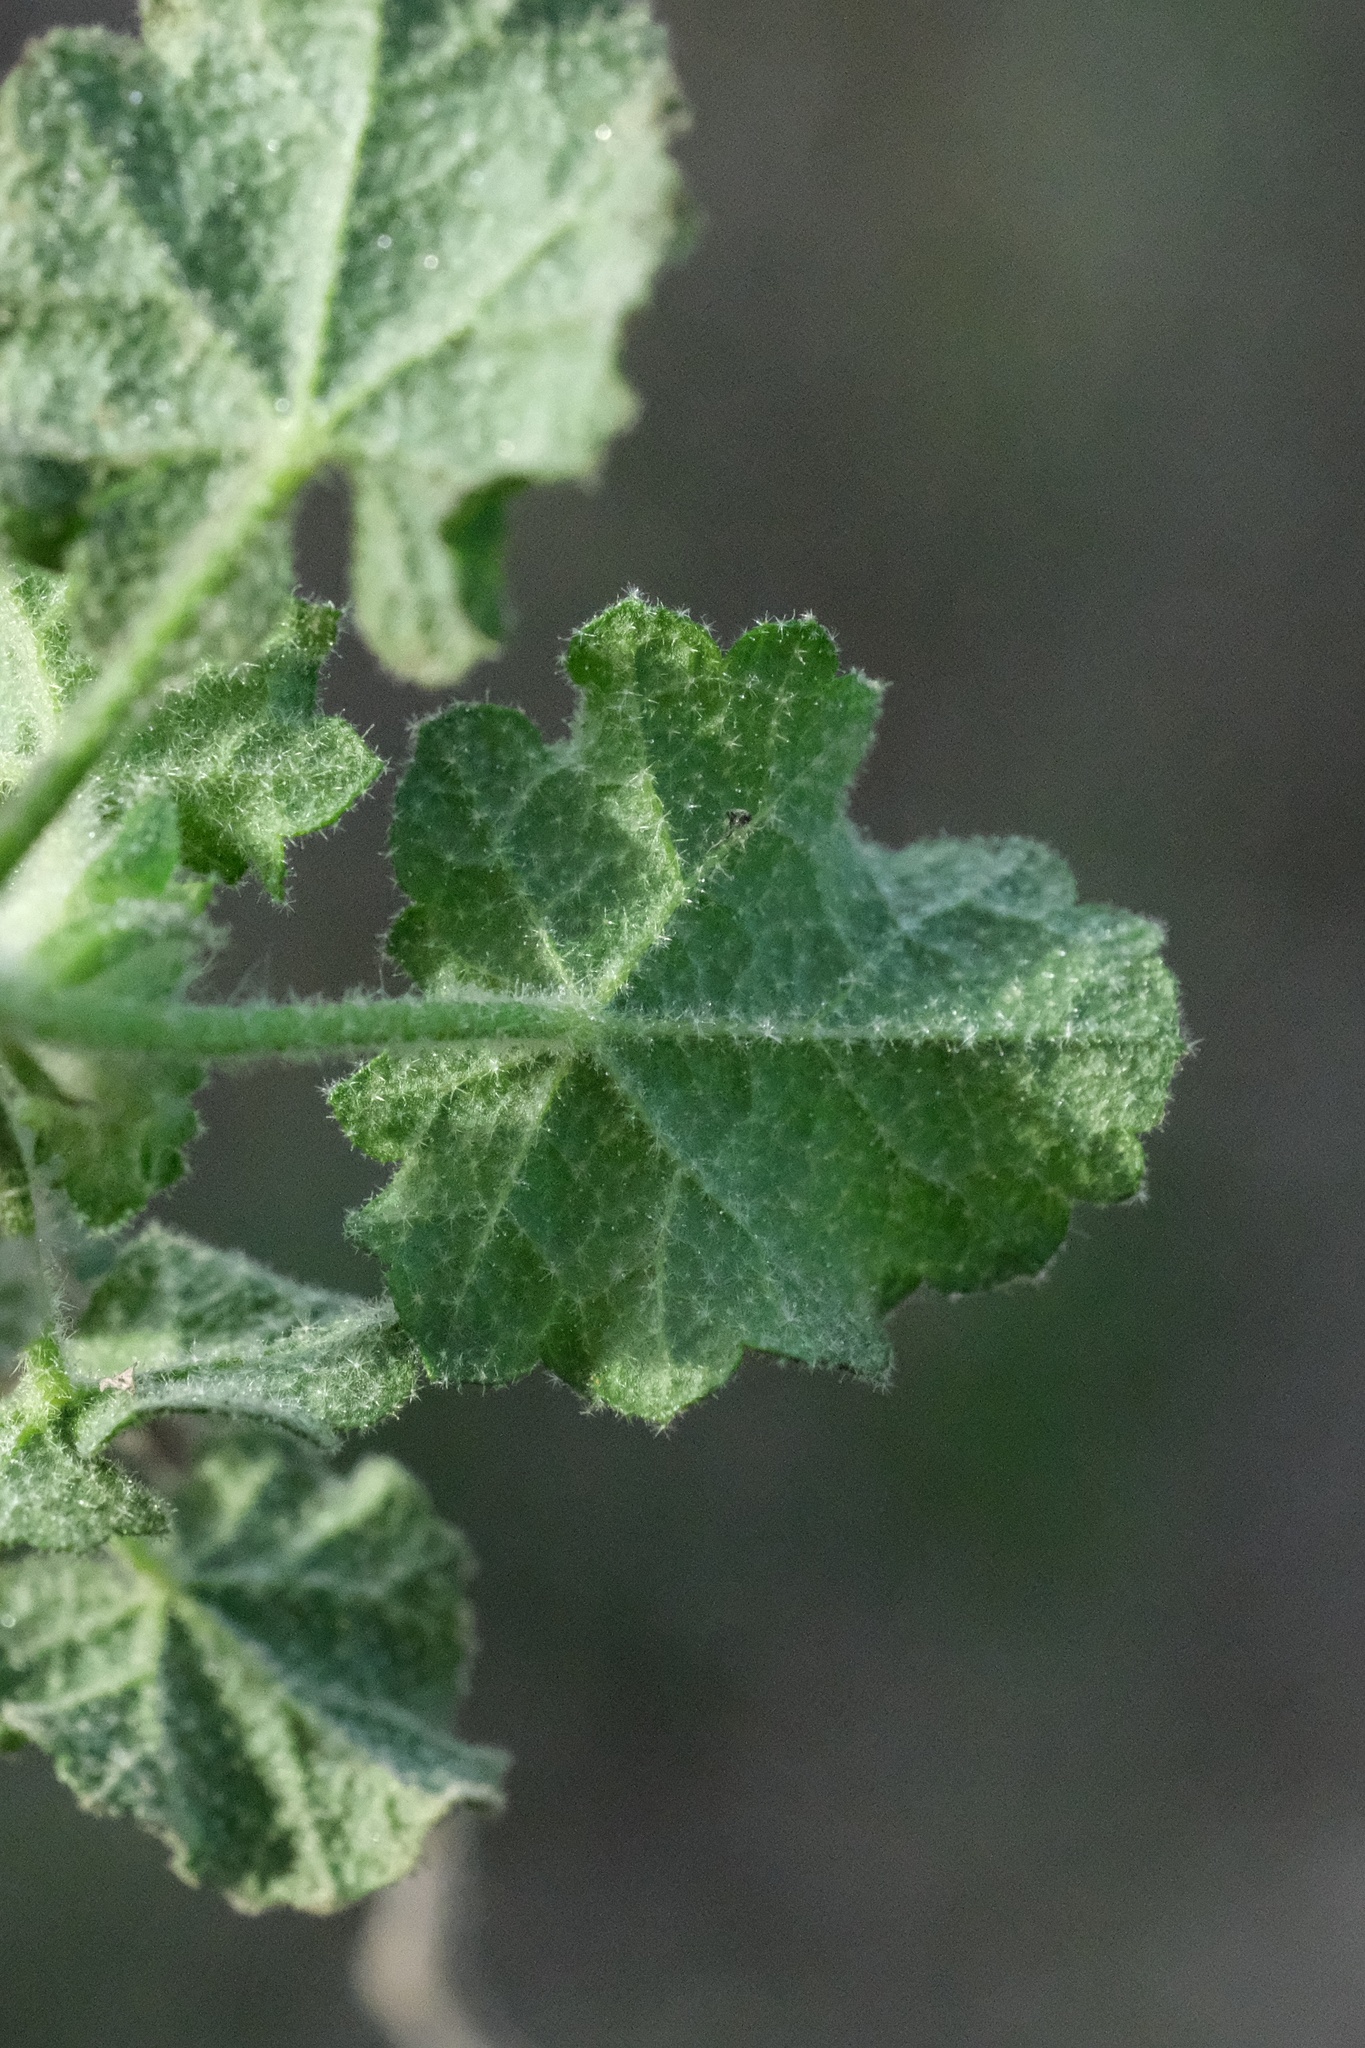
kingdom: Plantae
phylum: Tracheophyta
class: Magnoliopsida
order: Malvales
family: Malvaceae
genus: Malacothamnus
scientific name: Malacothamnus densiflorus
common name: Yellow-stem bush-mallow
